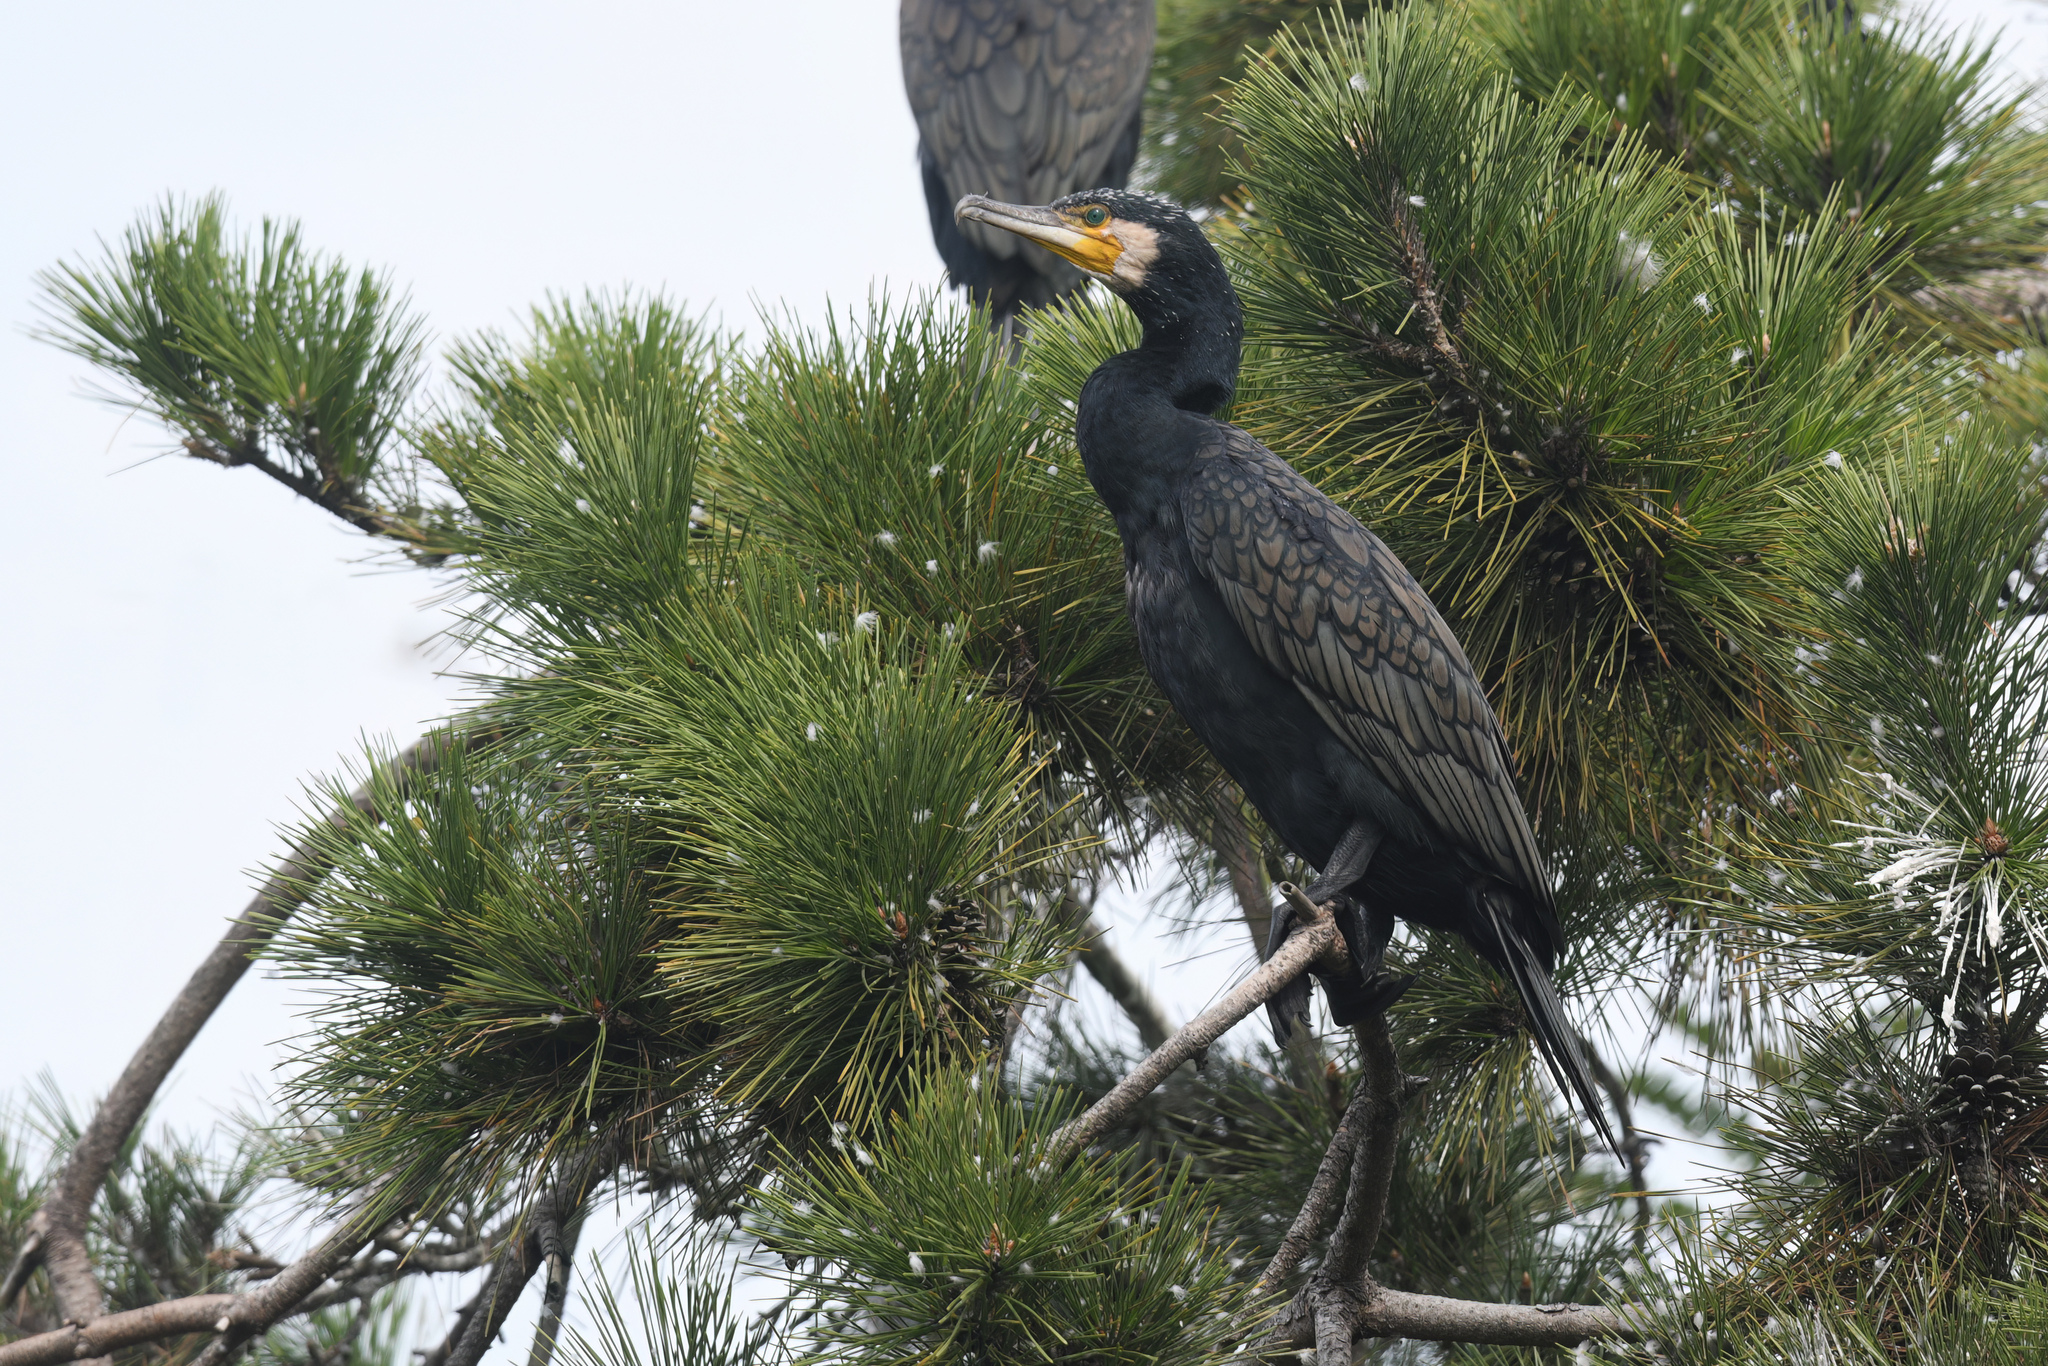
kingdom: Animalia
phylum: Chordata
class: Aves
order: Suliformes
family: Phalacrocoracidae
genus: Phalacrocorax
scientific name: Phalacrocorax carbo
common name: Great cormorant
